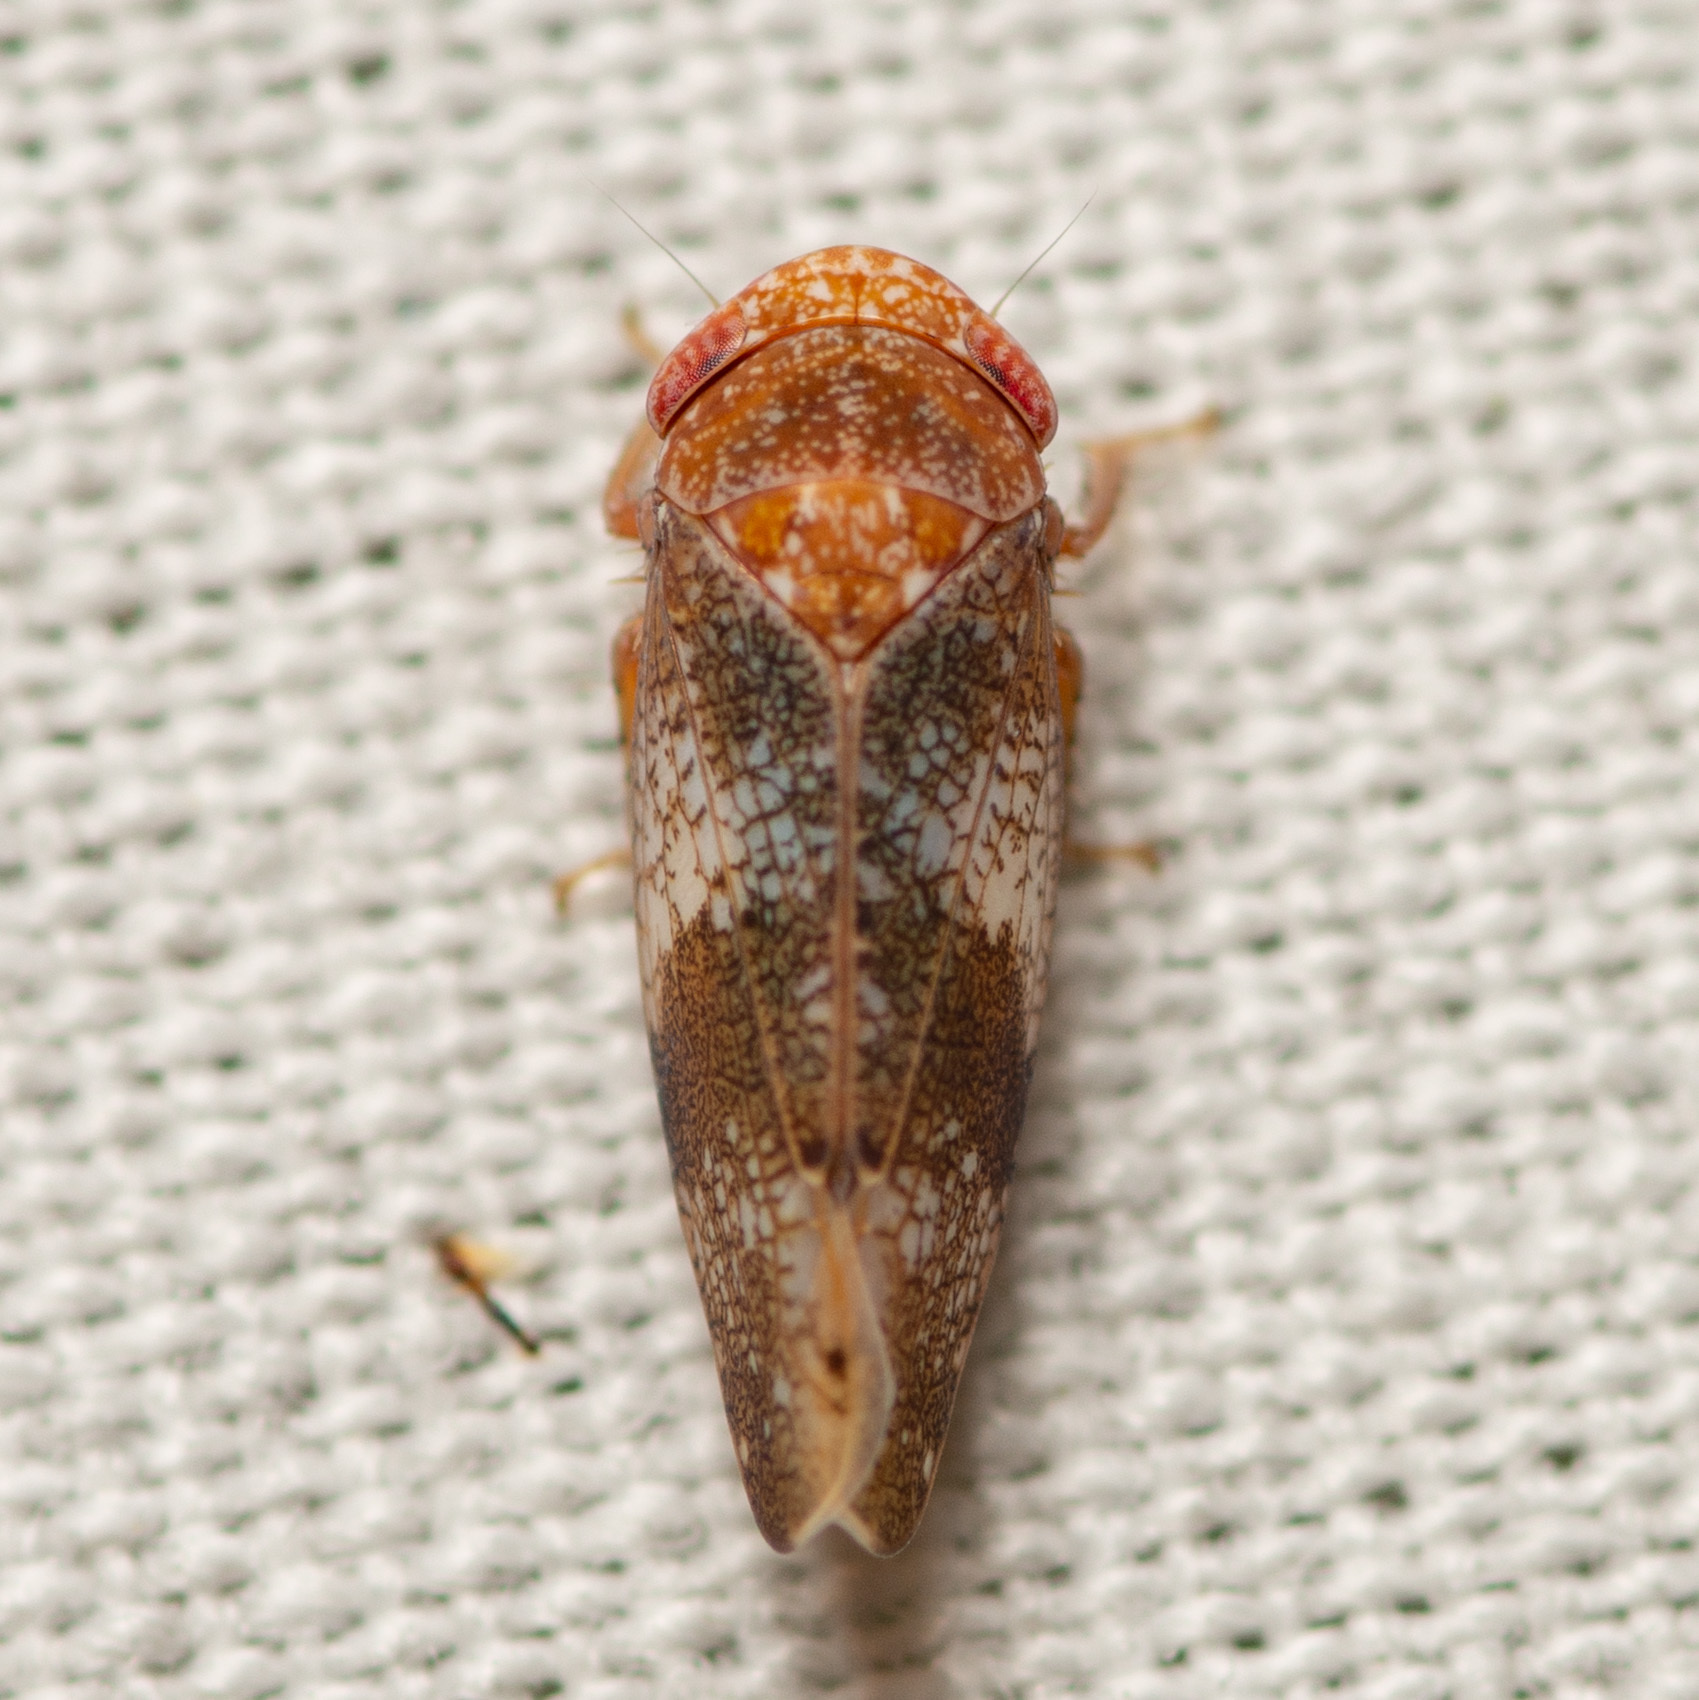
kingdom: Animalia
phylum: Arthropoda
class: Insecta
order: Hemiptera
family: Cicadellidae
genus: Norvellina
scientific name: Norvellina helenae
